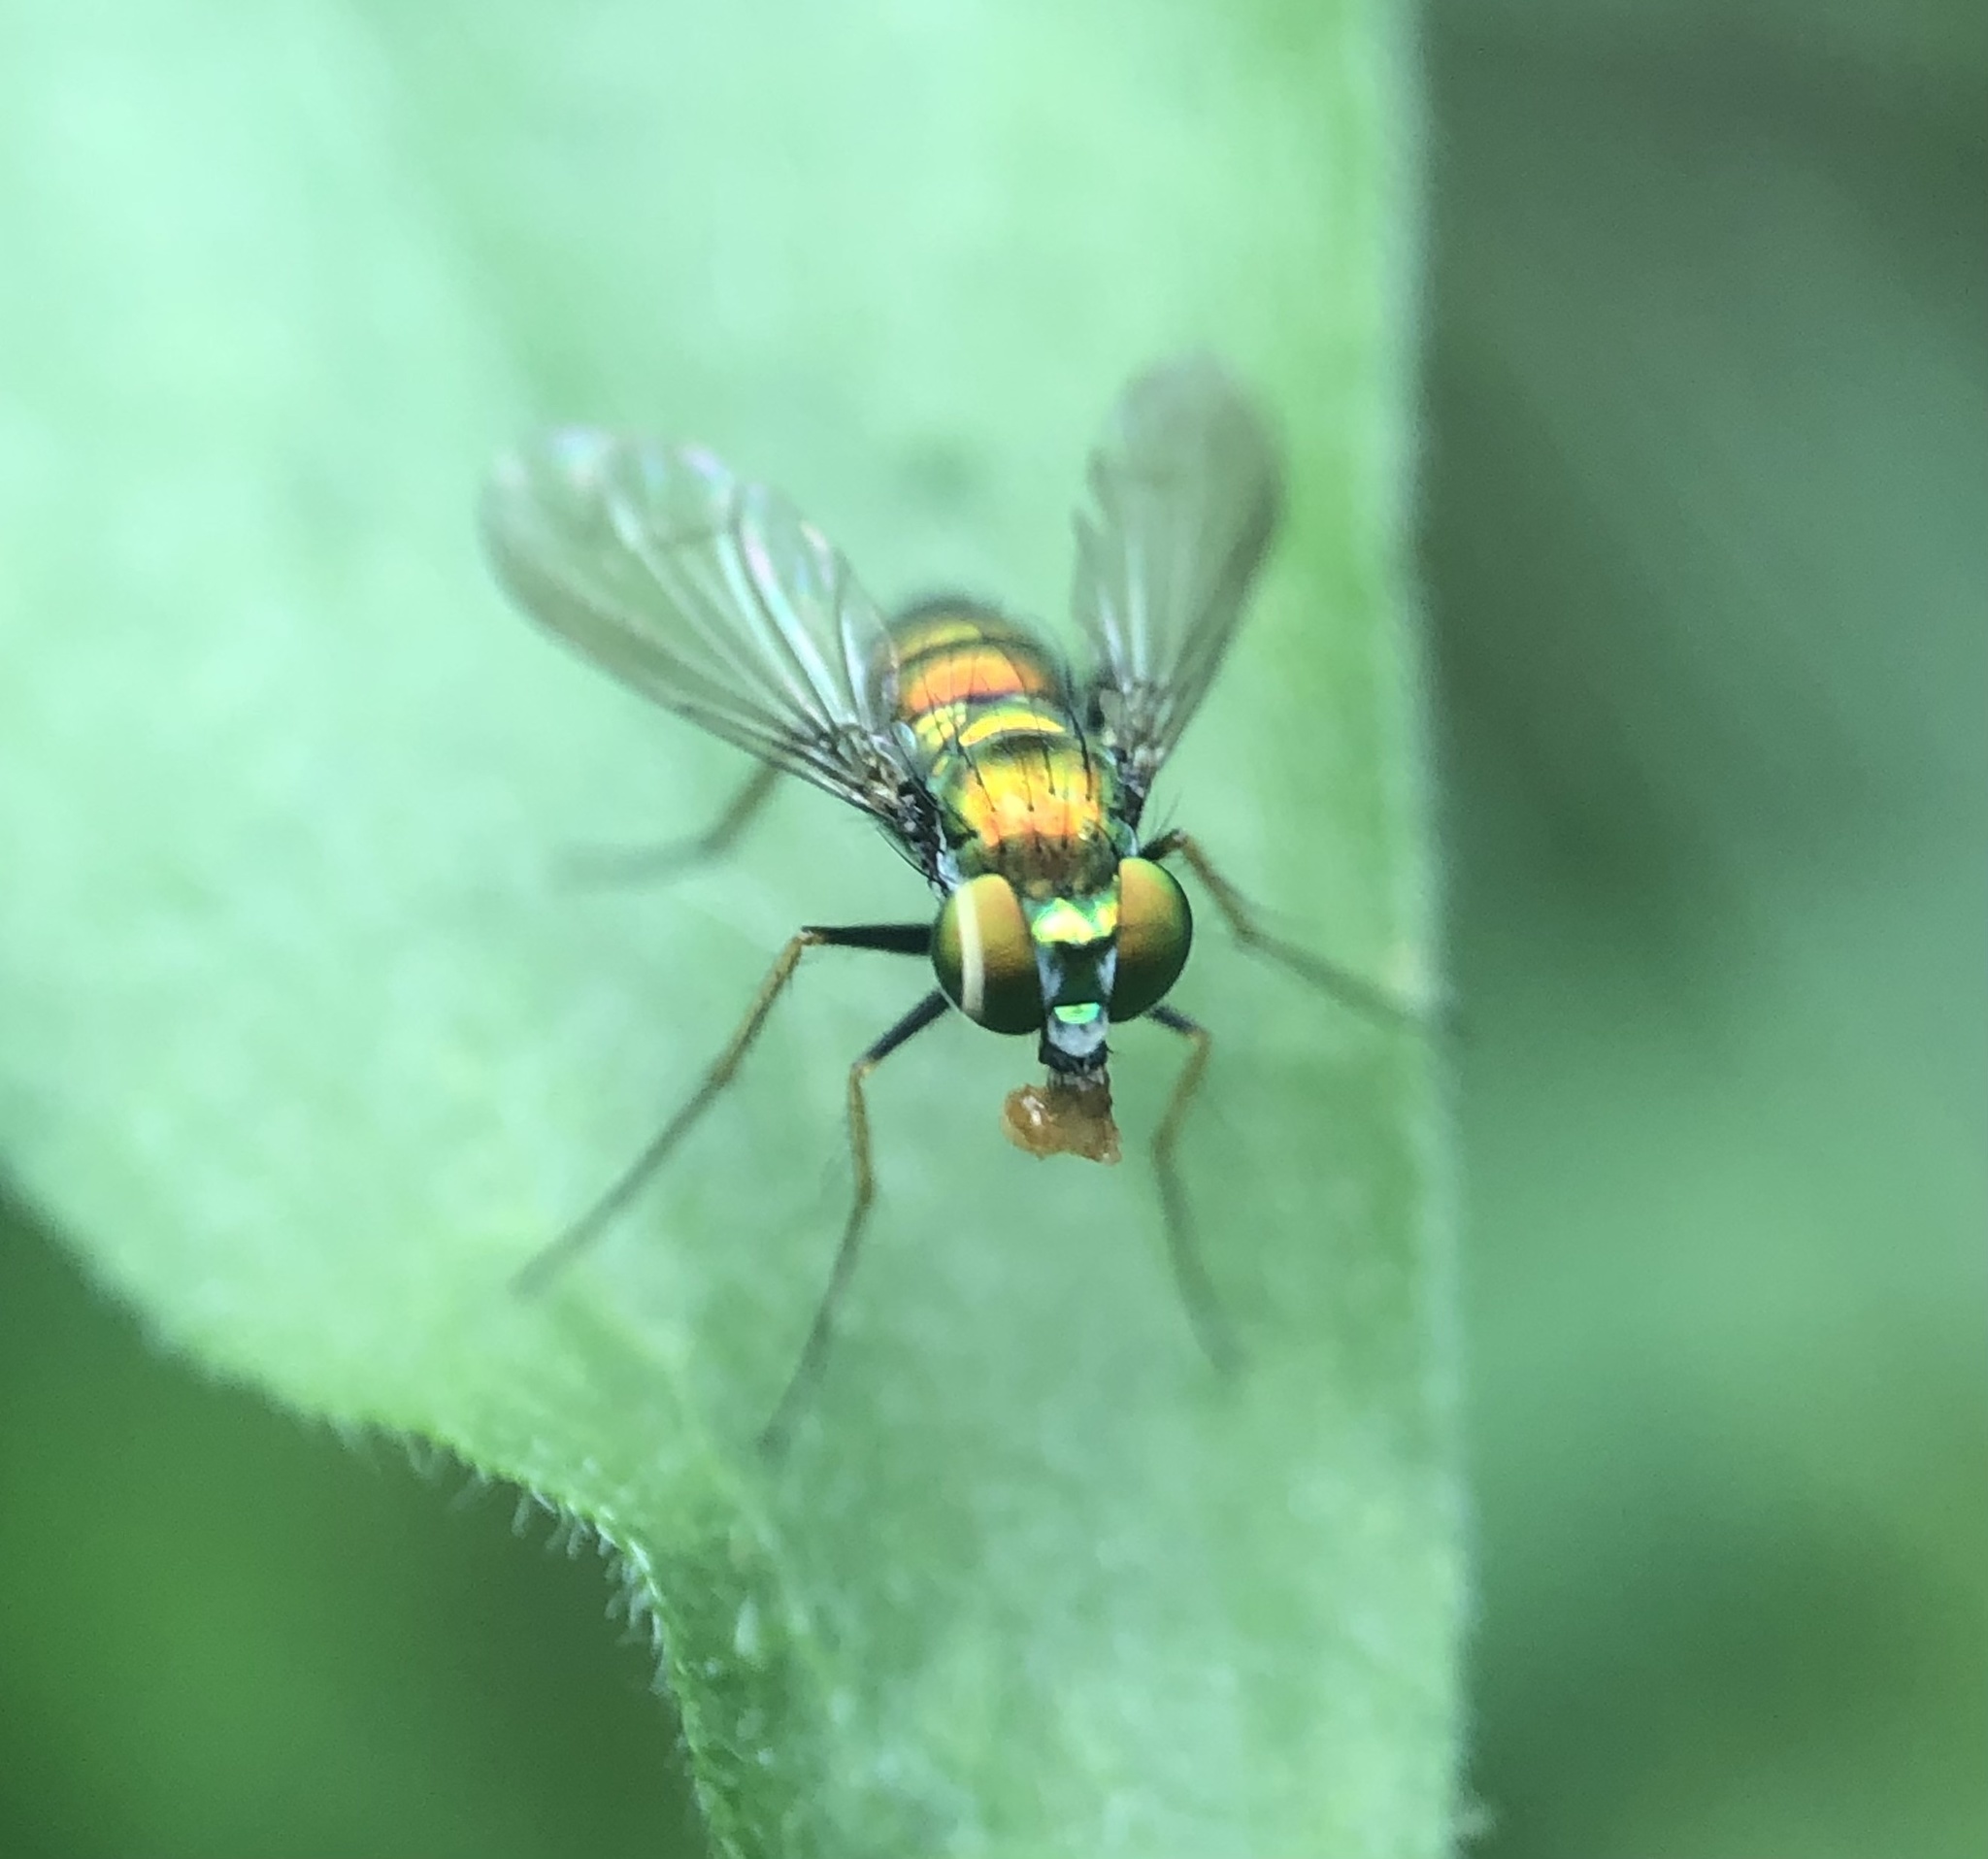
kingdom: Animalia
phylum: Arthropoda
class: Insecta
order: Diptera
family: Dolichopodidae
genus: Condylostylus
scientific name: Condylostylus
